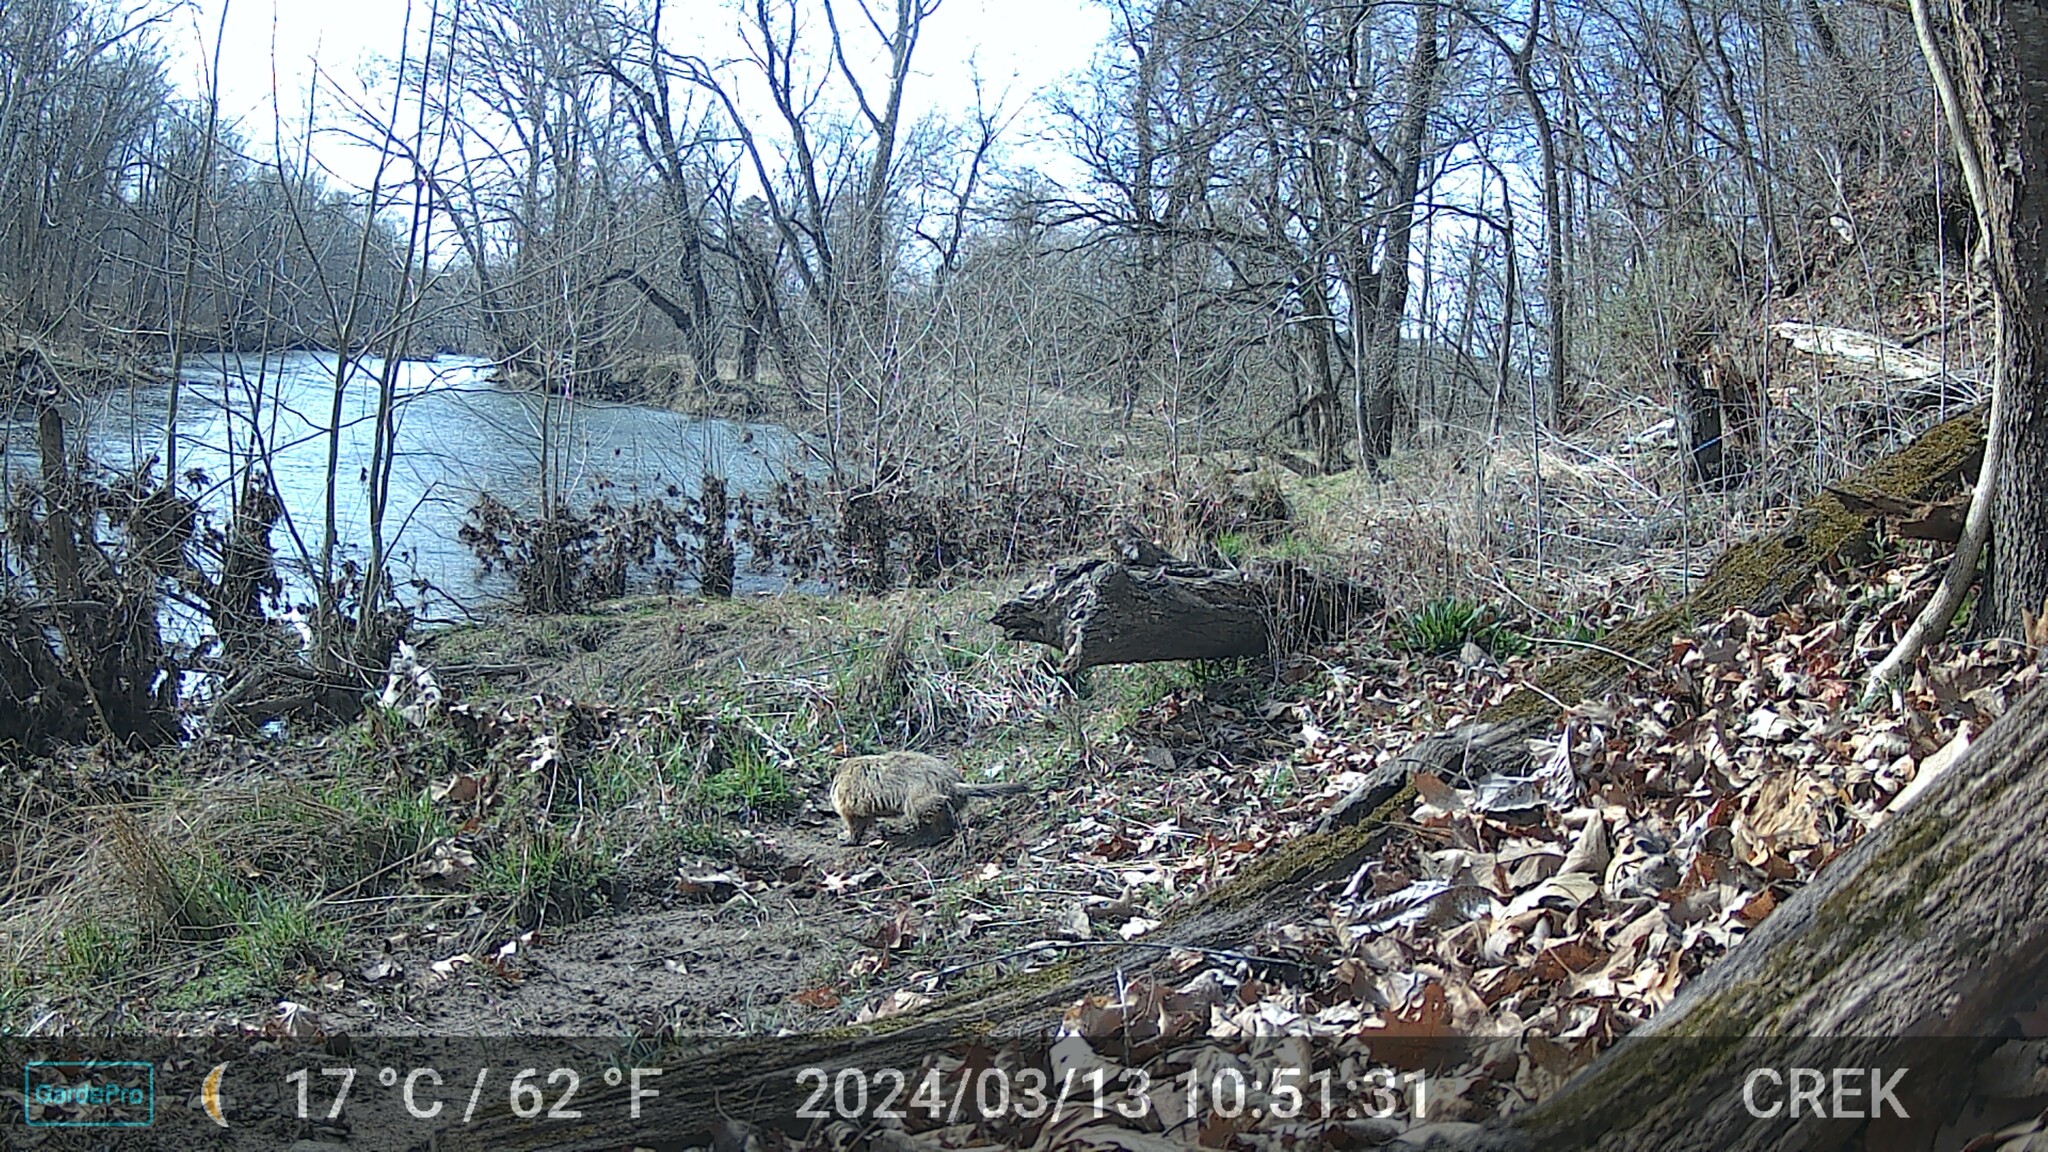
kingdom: Animalia
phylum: Chordata
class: Mammalia
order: Rodentia
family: Sciuridae
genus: Marmota
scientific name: Marmota monax
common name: Groundhog
